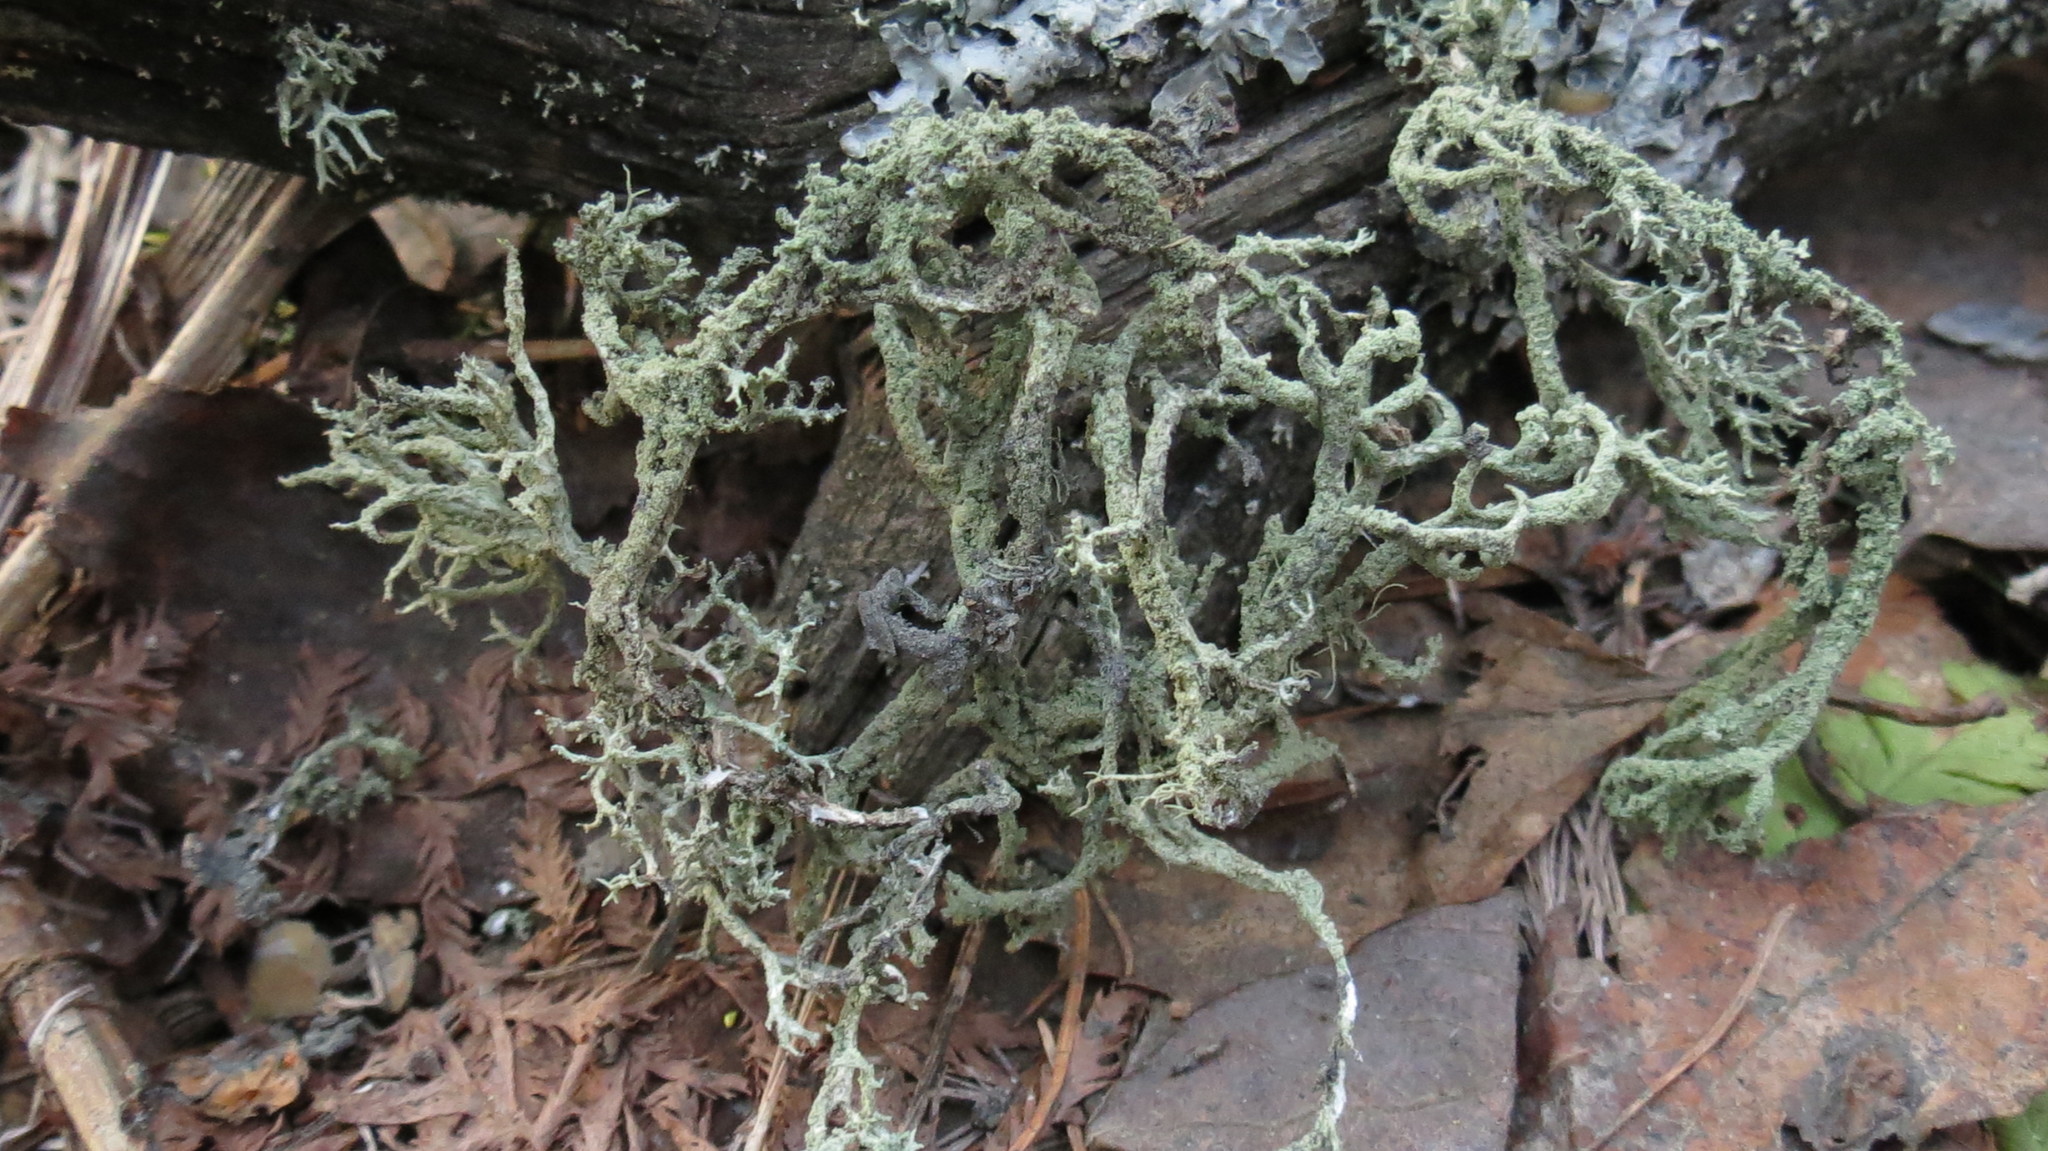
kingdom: Fungi
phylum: Ascomycota
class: Lecanoromycetes
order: Lecanorales
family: Parmeliaceae
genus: Evernia
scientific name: Evernia mesomorpha
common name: Boreal oak moss lichen
